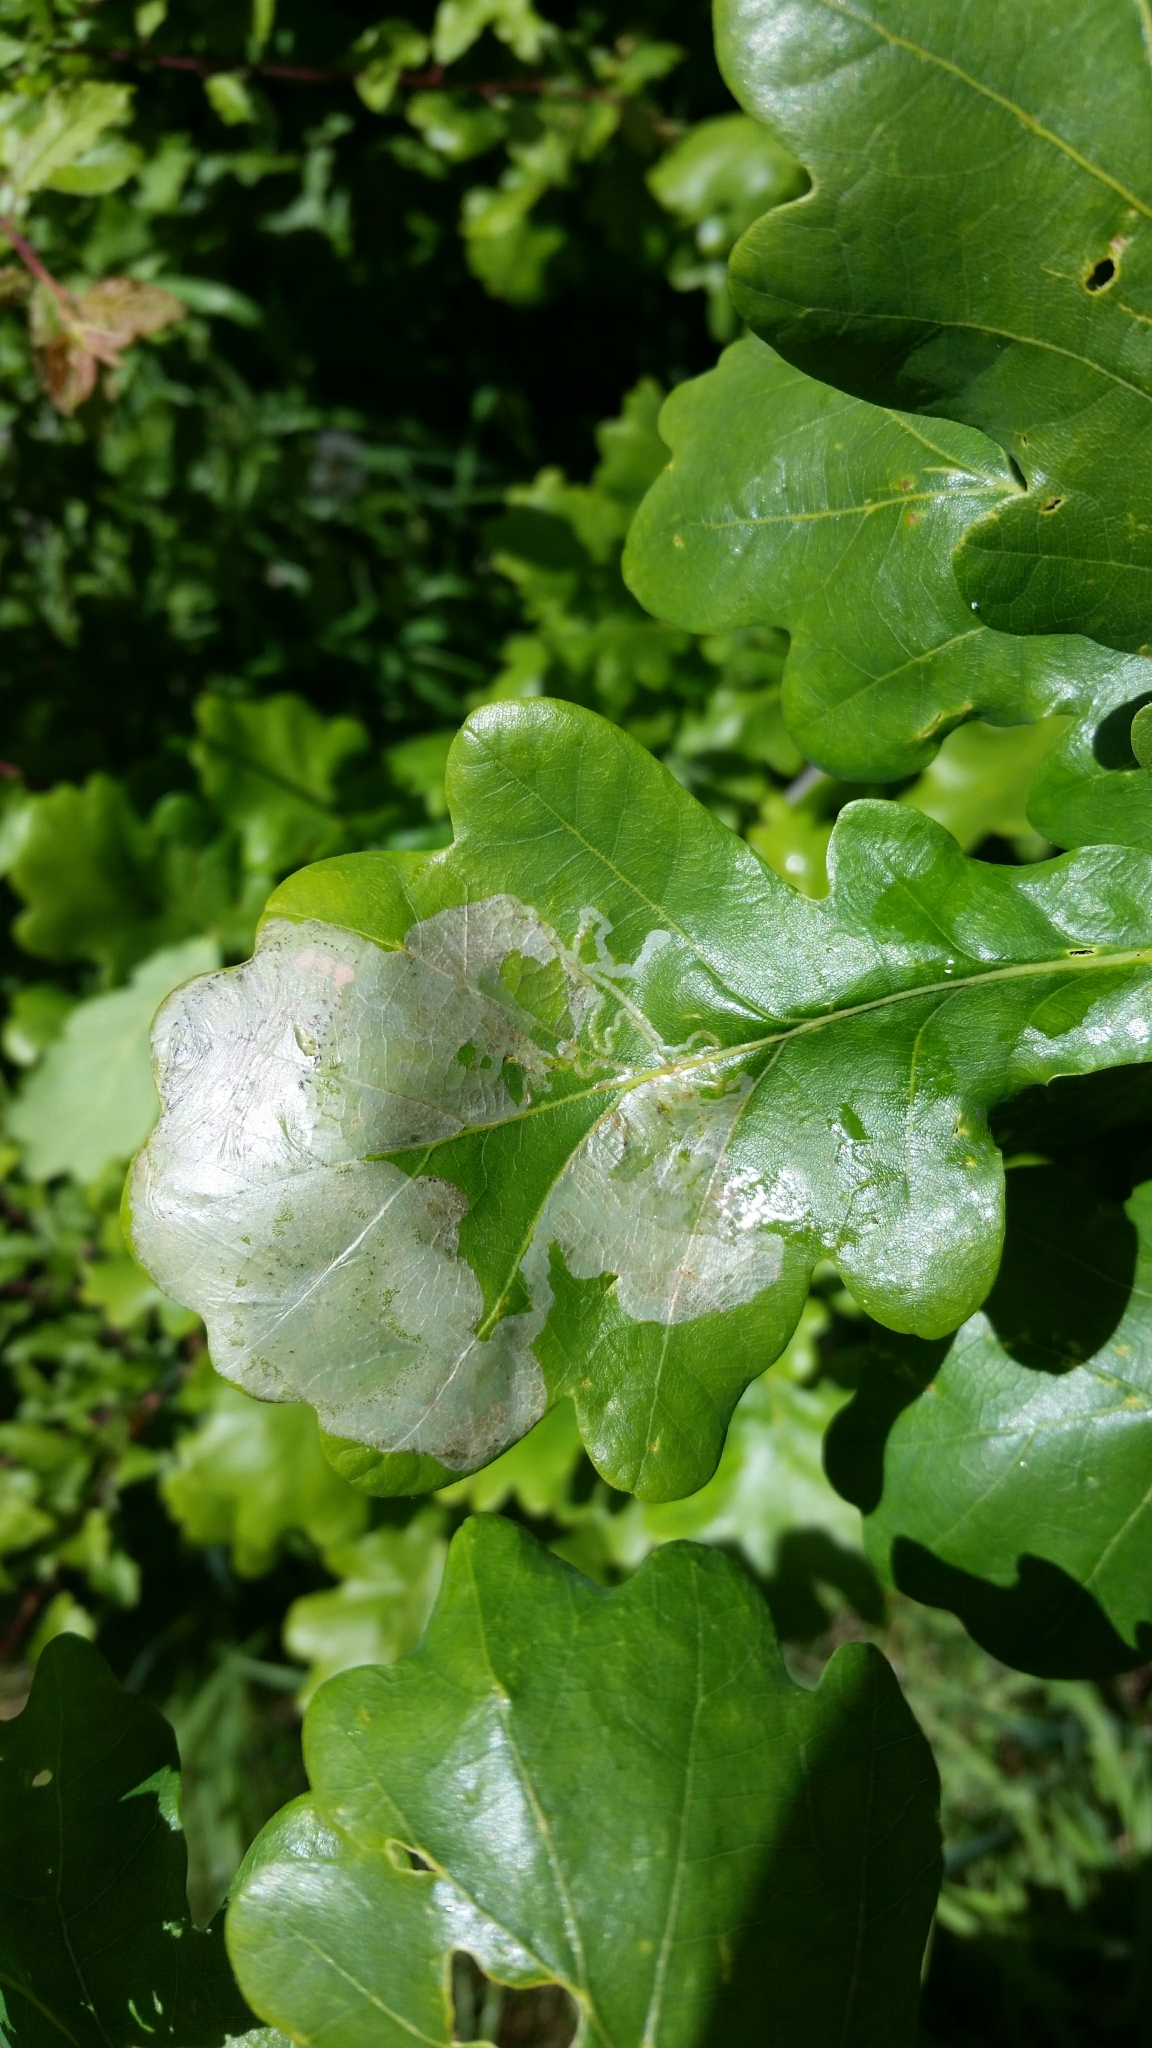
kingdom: Animalia
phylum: Arthropoda
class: Insecta
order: Lepidoptera
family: Gracillariidae
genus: Acrocercops
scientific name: Acrocercops brongniardella
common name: Brown oak slender
